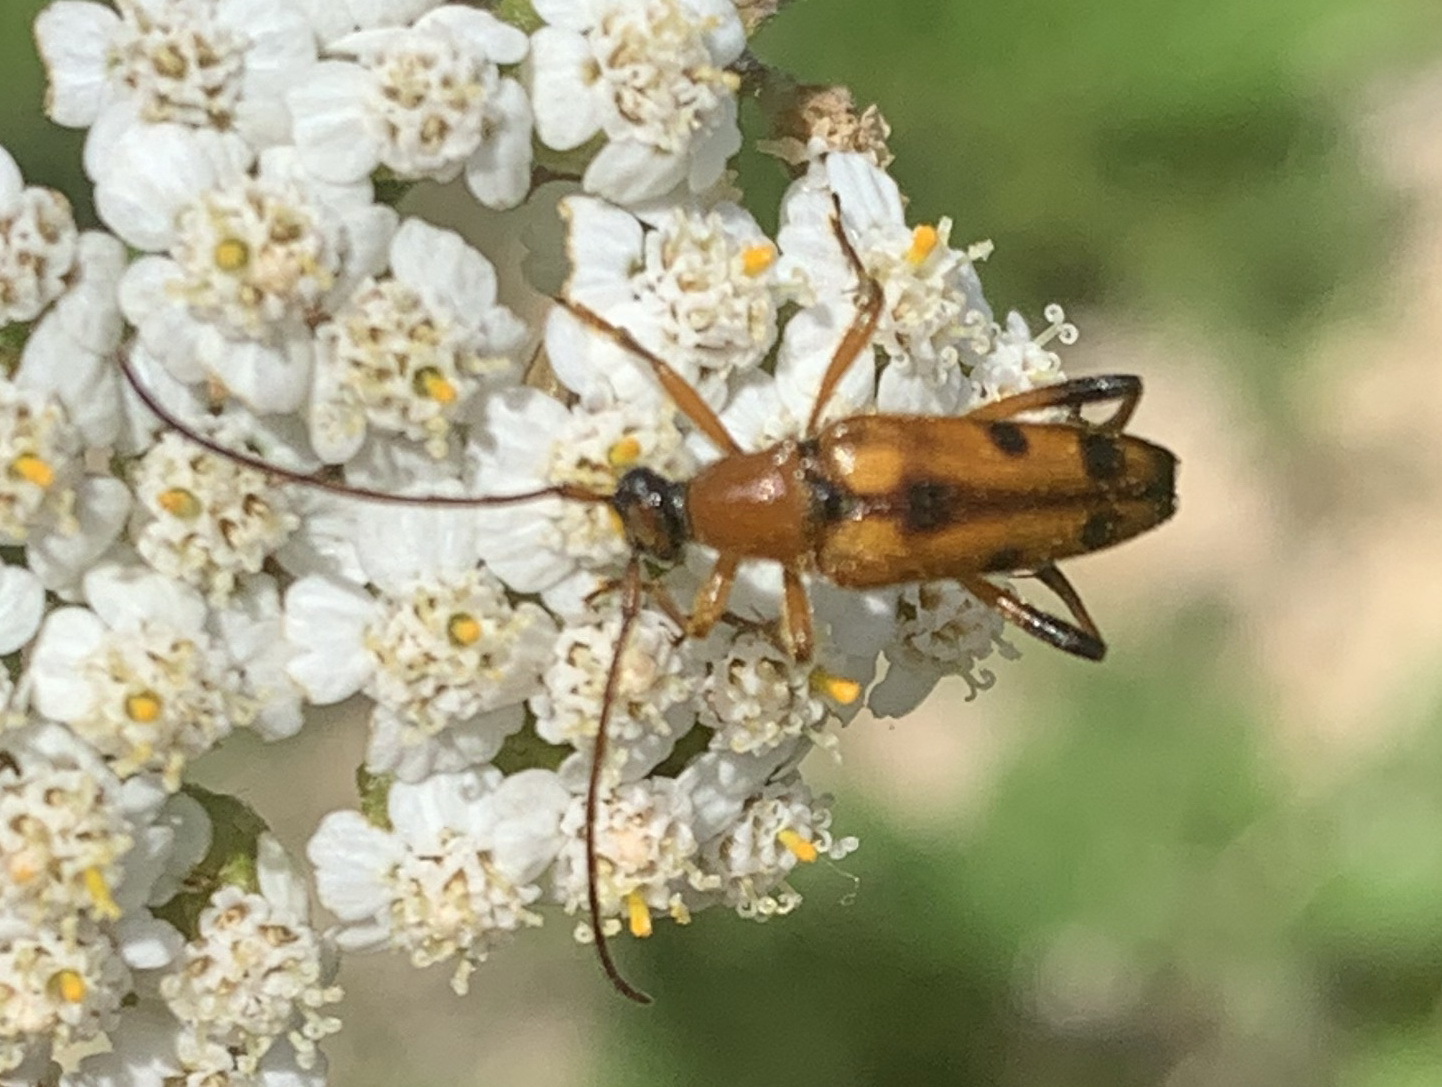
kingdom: Animalia
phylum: Arthropoda
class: Insecta
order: Coleoptera
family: Cerambycidae
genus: Stenurella
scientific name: Stenurella septempunctata
